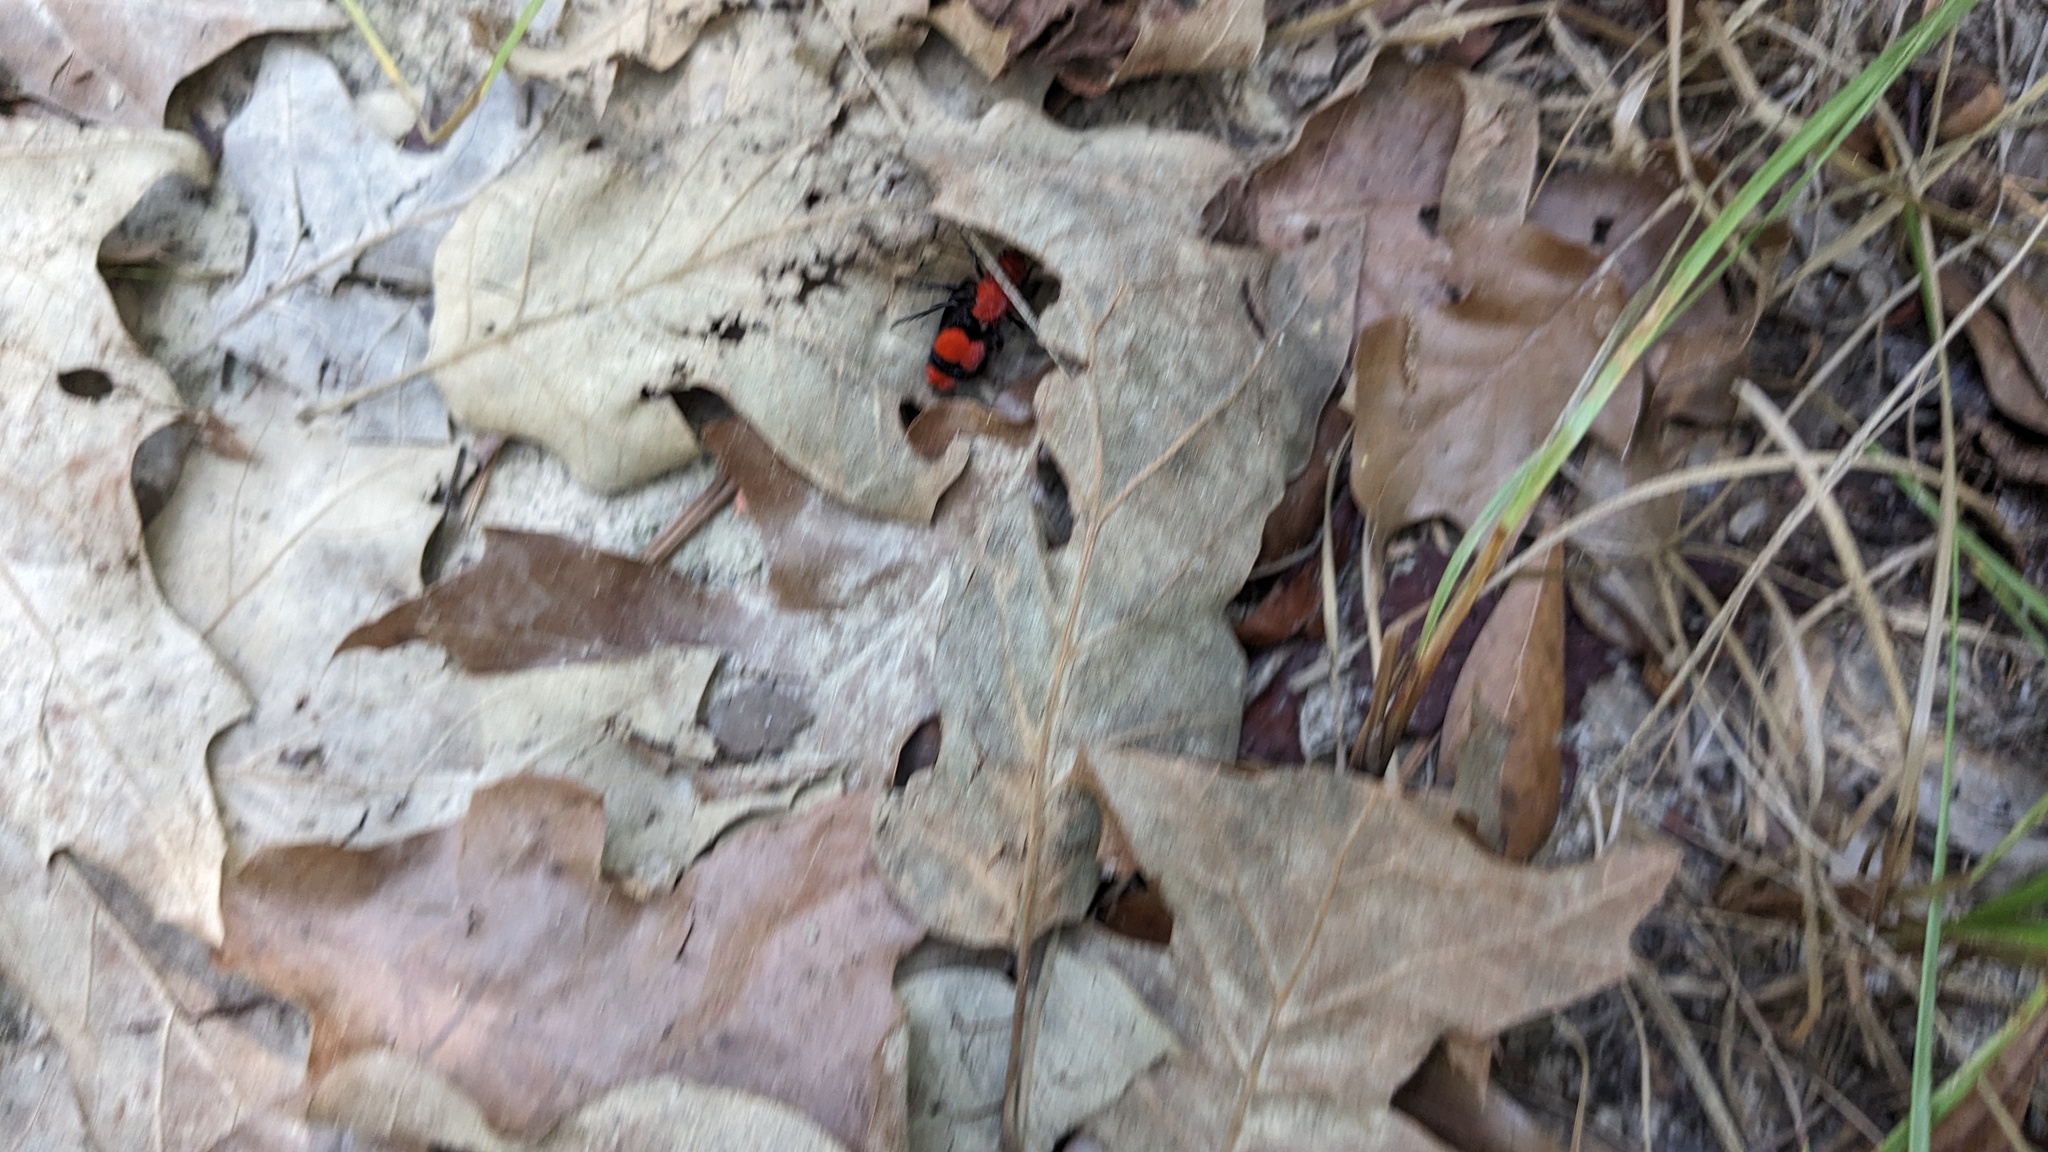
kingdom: Animalia
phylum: Arthropoda
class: Insecta
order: Hymenoptera
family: Mutillidae
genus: Dasymutilla
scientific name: Dasymutilla occidentalis
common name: Common eastern velvet ant
